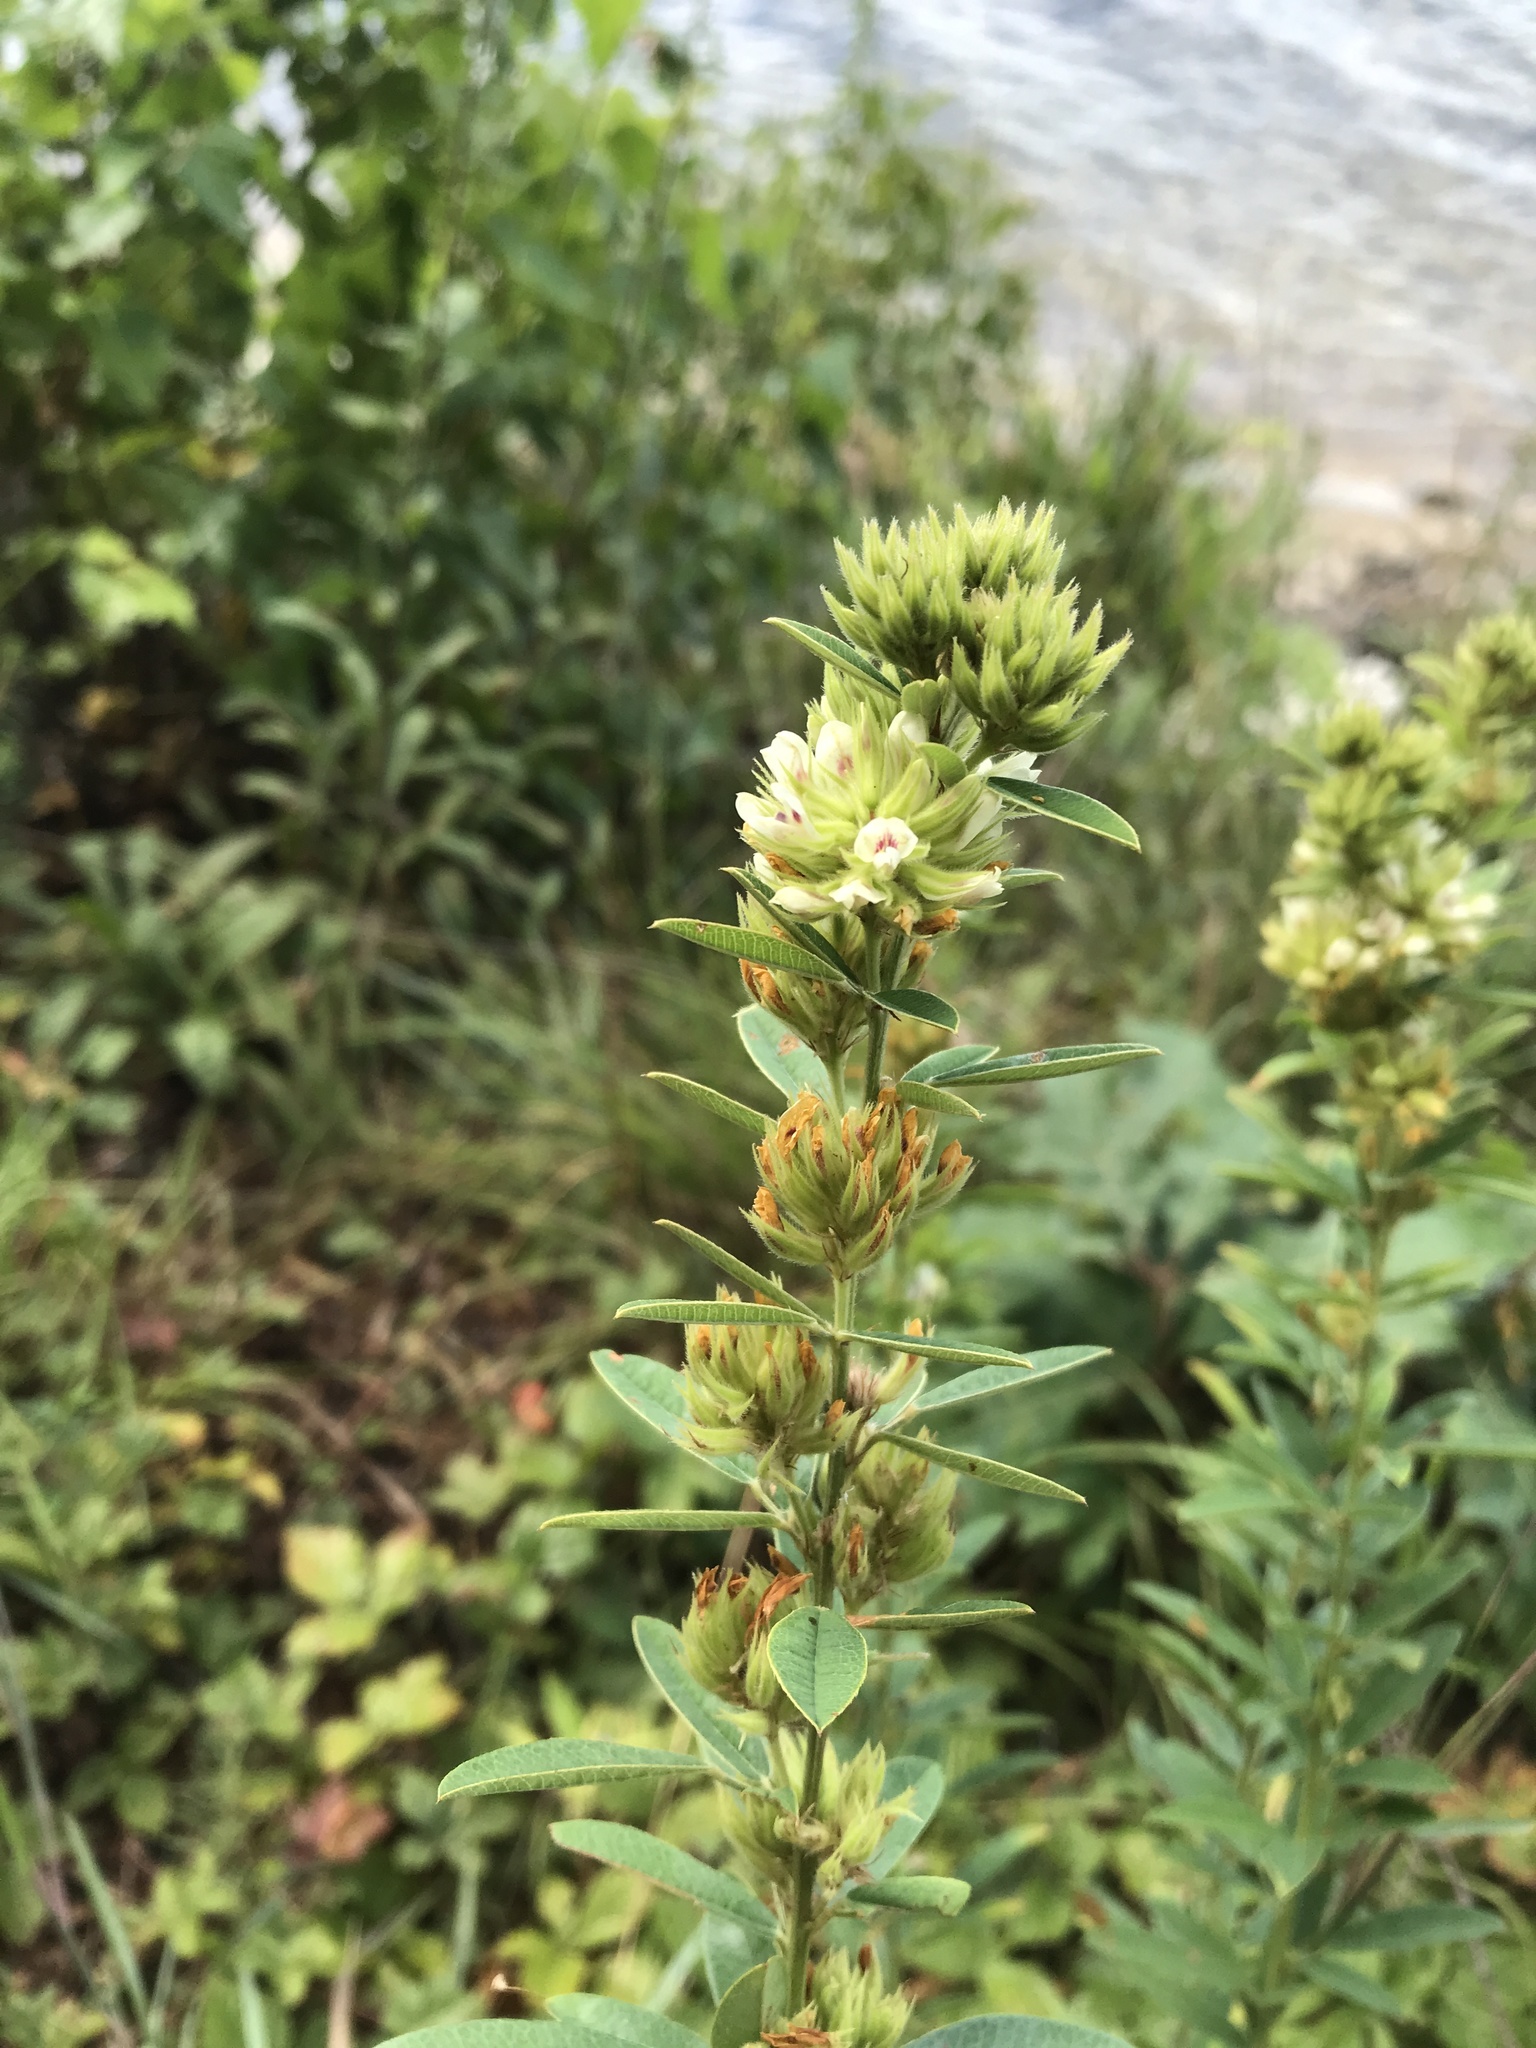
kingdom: Plantae
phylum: Tracheophyta
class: Magnoliopsida
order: Fabales
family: Fabaceae
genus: Lespedeza
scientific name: Lespedeza capitata
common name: Dusty clover
